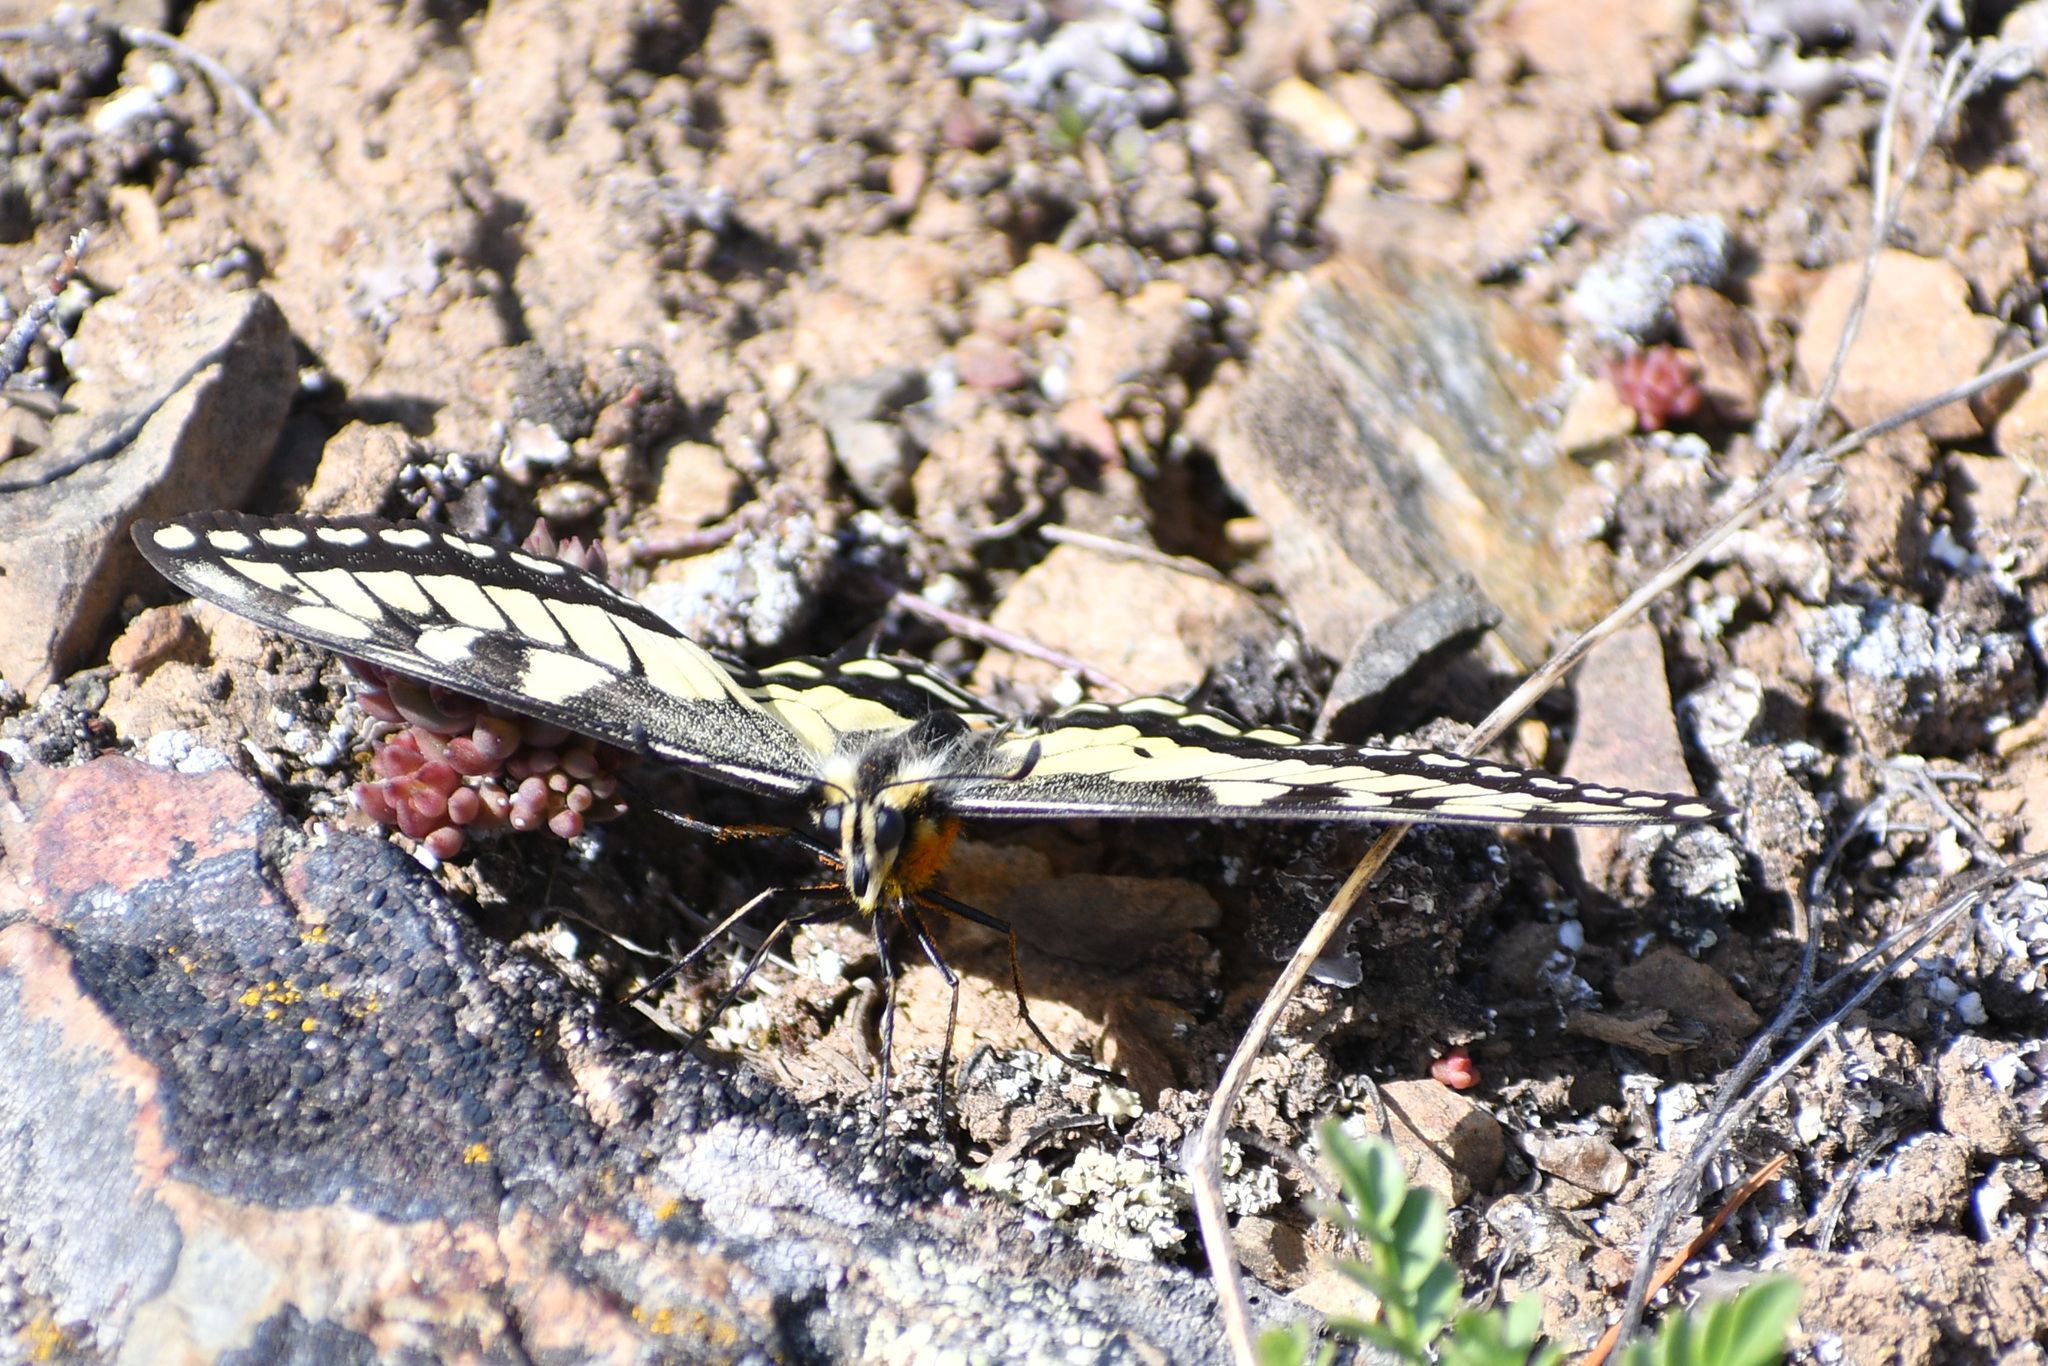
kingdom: Animalia
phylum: Arthropoda
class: Insecta
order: Lepidoptera
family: Papilionidae
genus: Papilio
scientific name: Papilio
